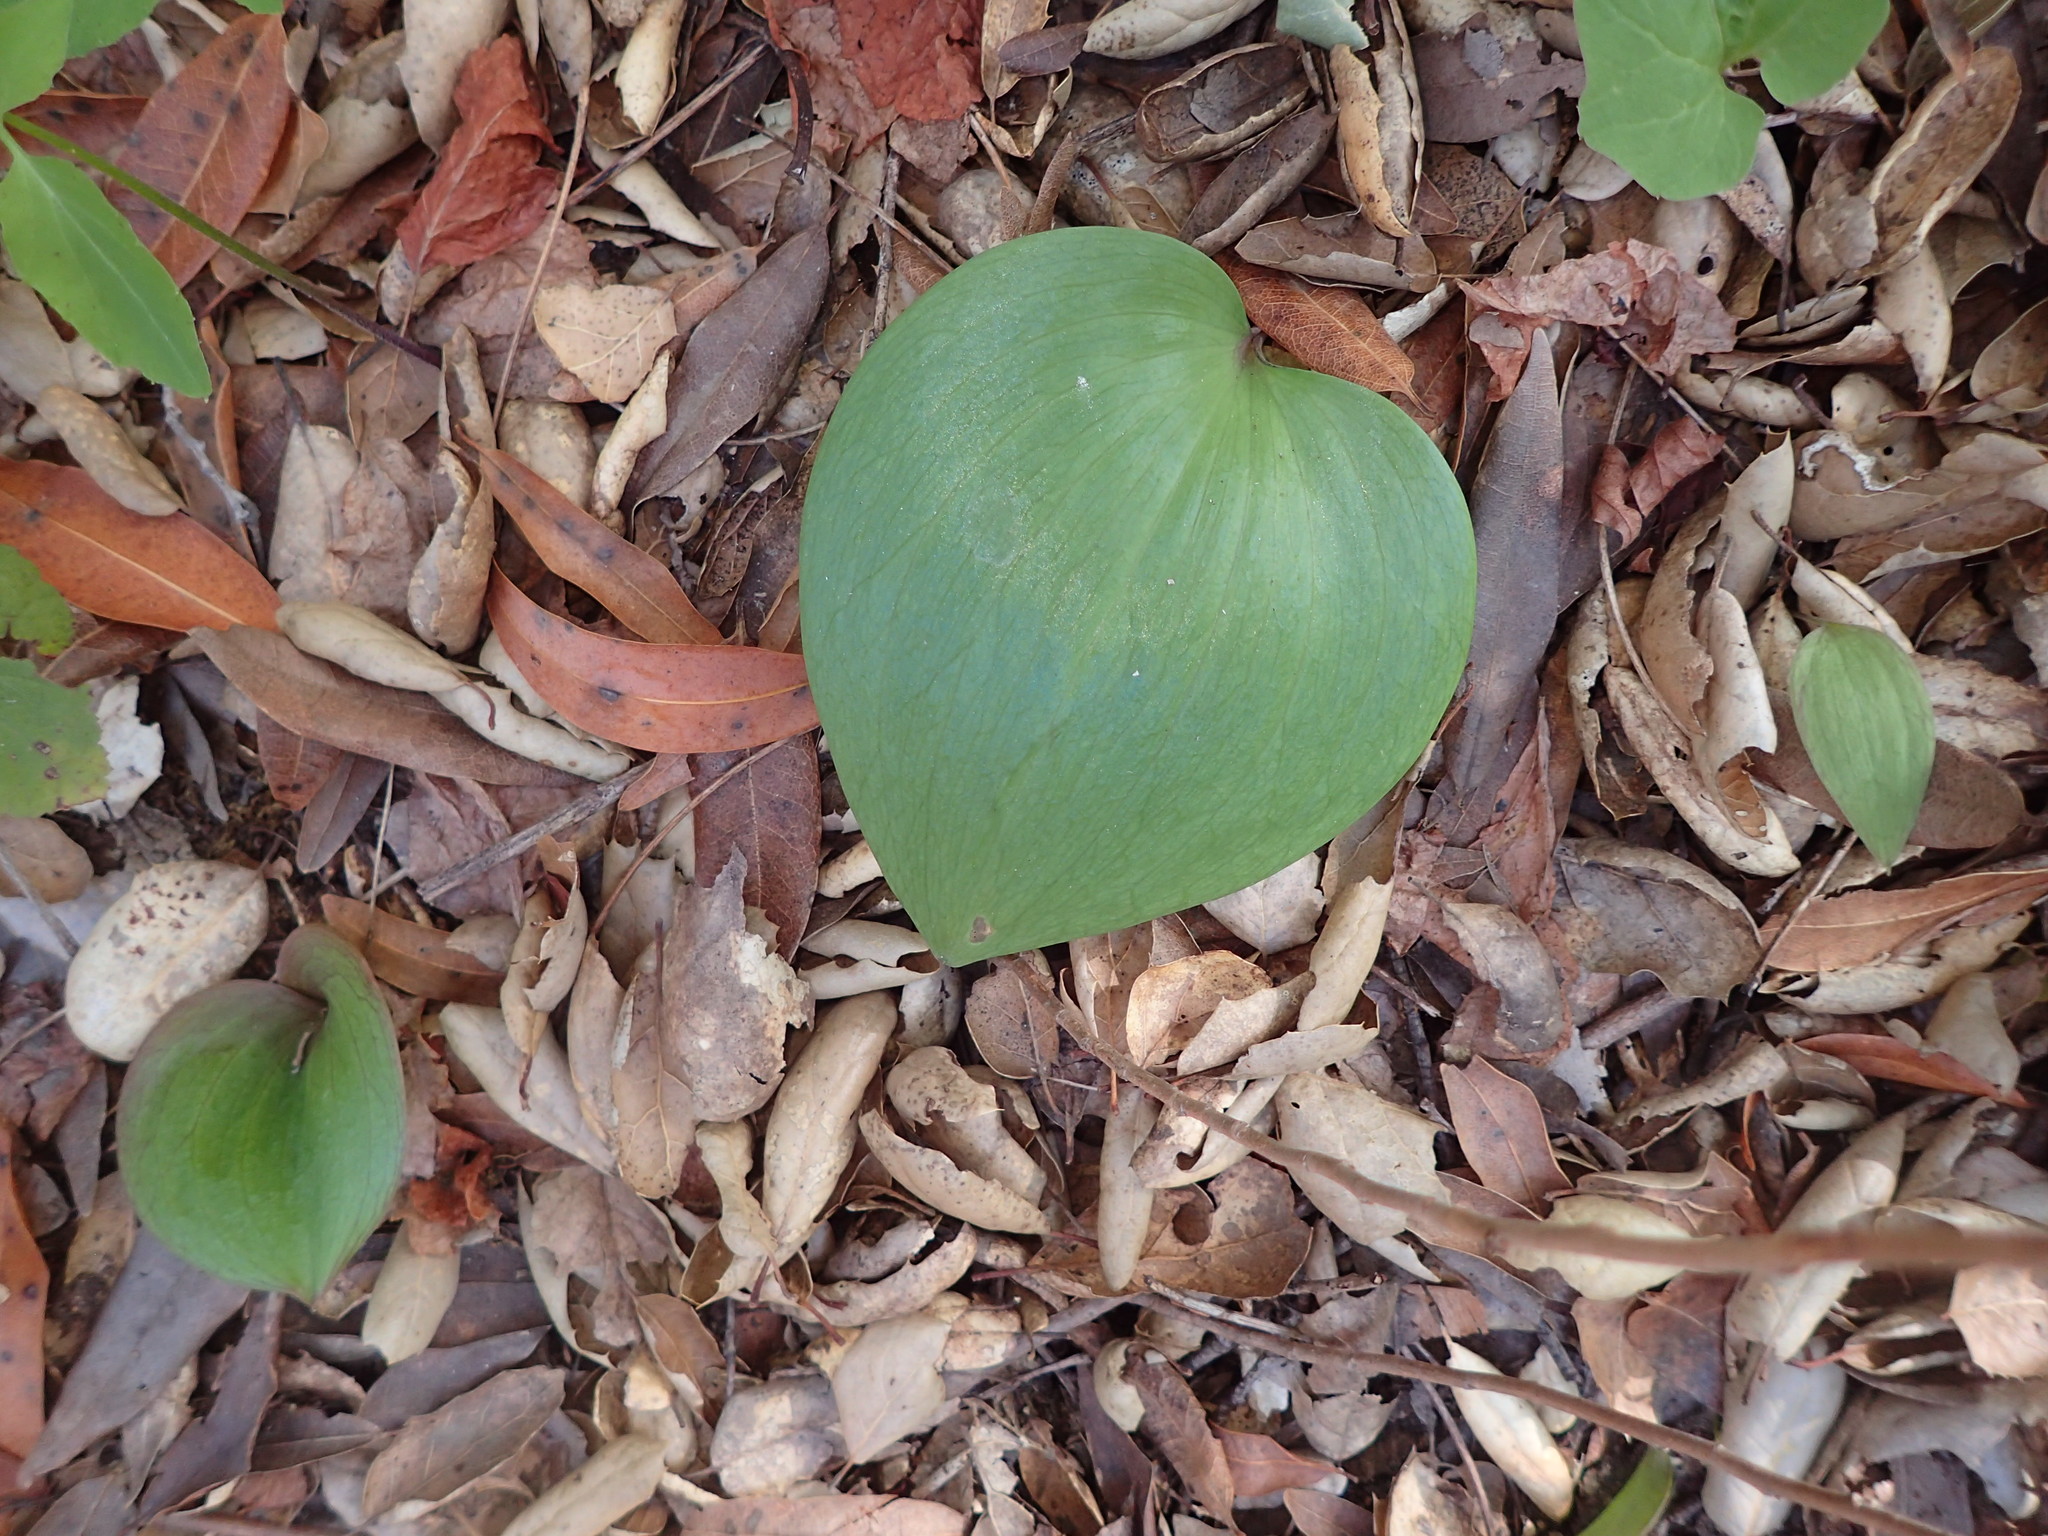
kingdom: Plantae
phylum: Tracheophyta
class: Liliopsida
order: Liliales
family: Liliaceae
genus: Fritillaria
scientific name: Fritillaria ojaiensis
